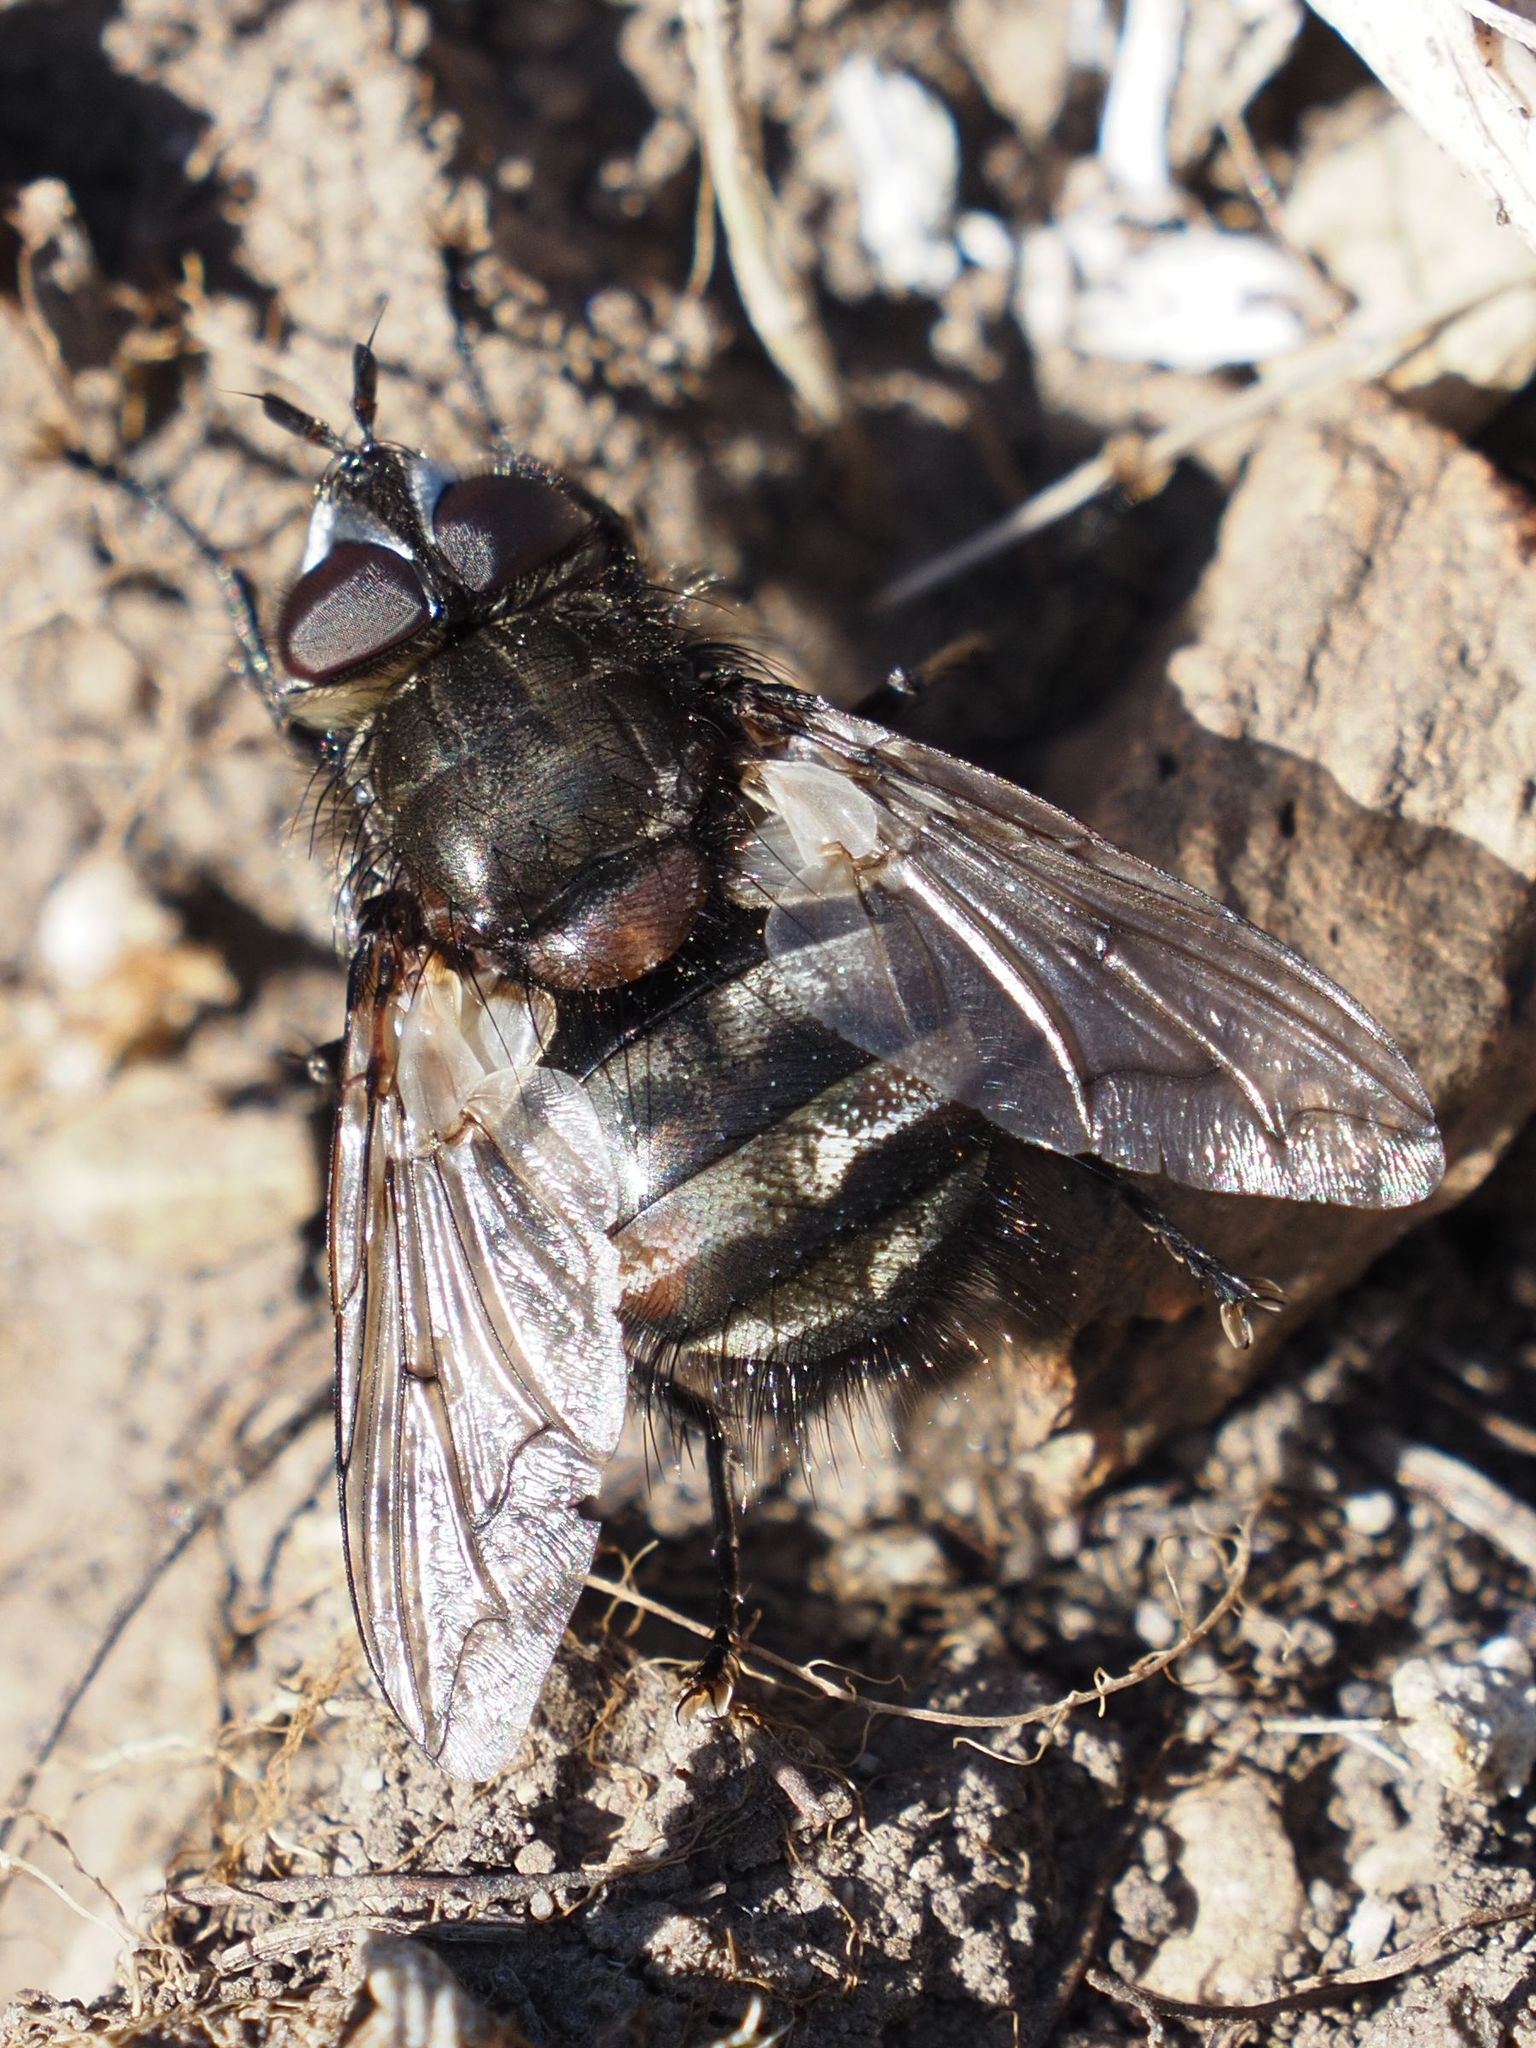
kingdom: Animalia
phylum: Arthropoda
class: Insecta
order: Diptera
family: Tachinidae
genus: Panzeria
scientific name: Panzeria puparum
